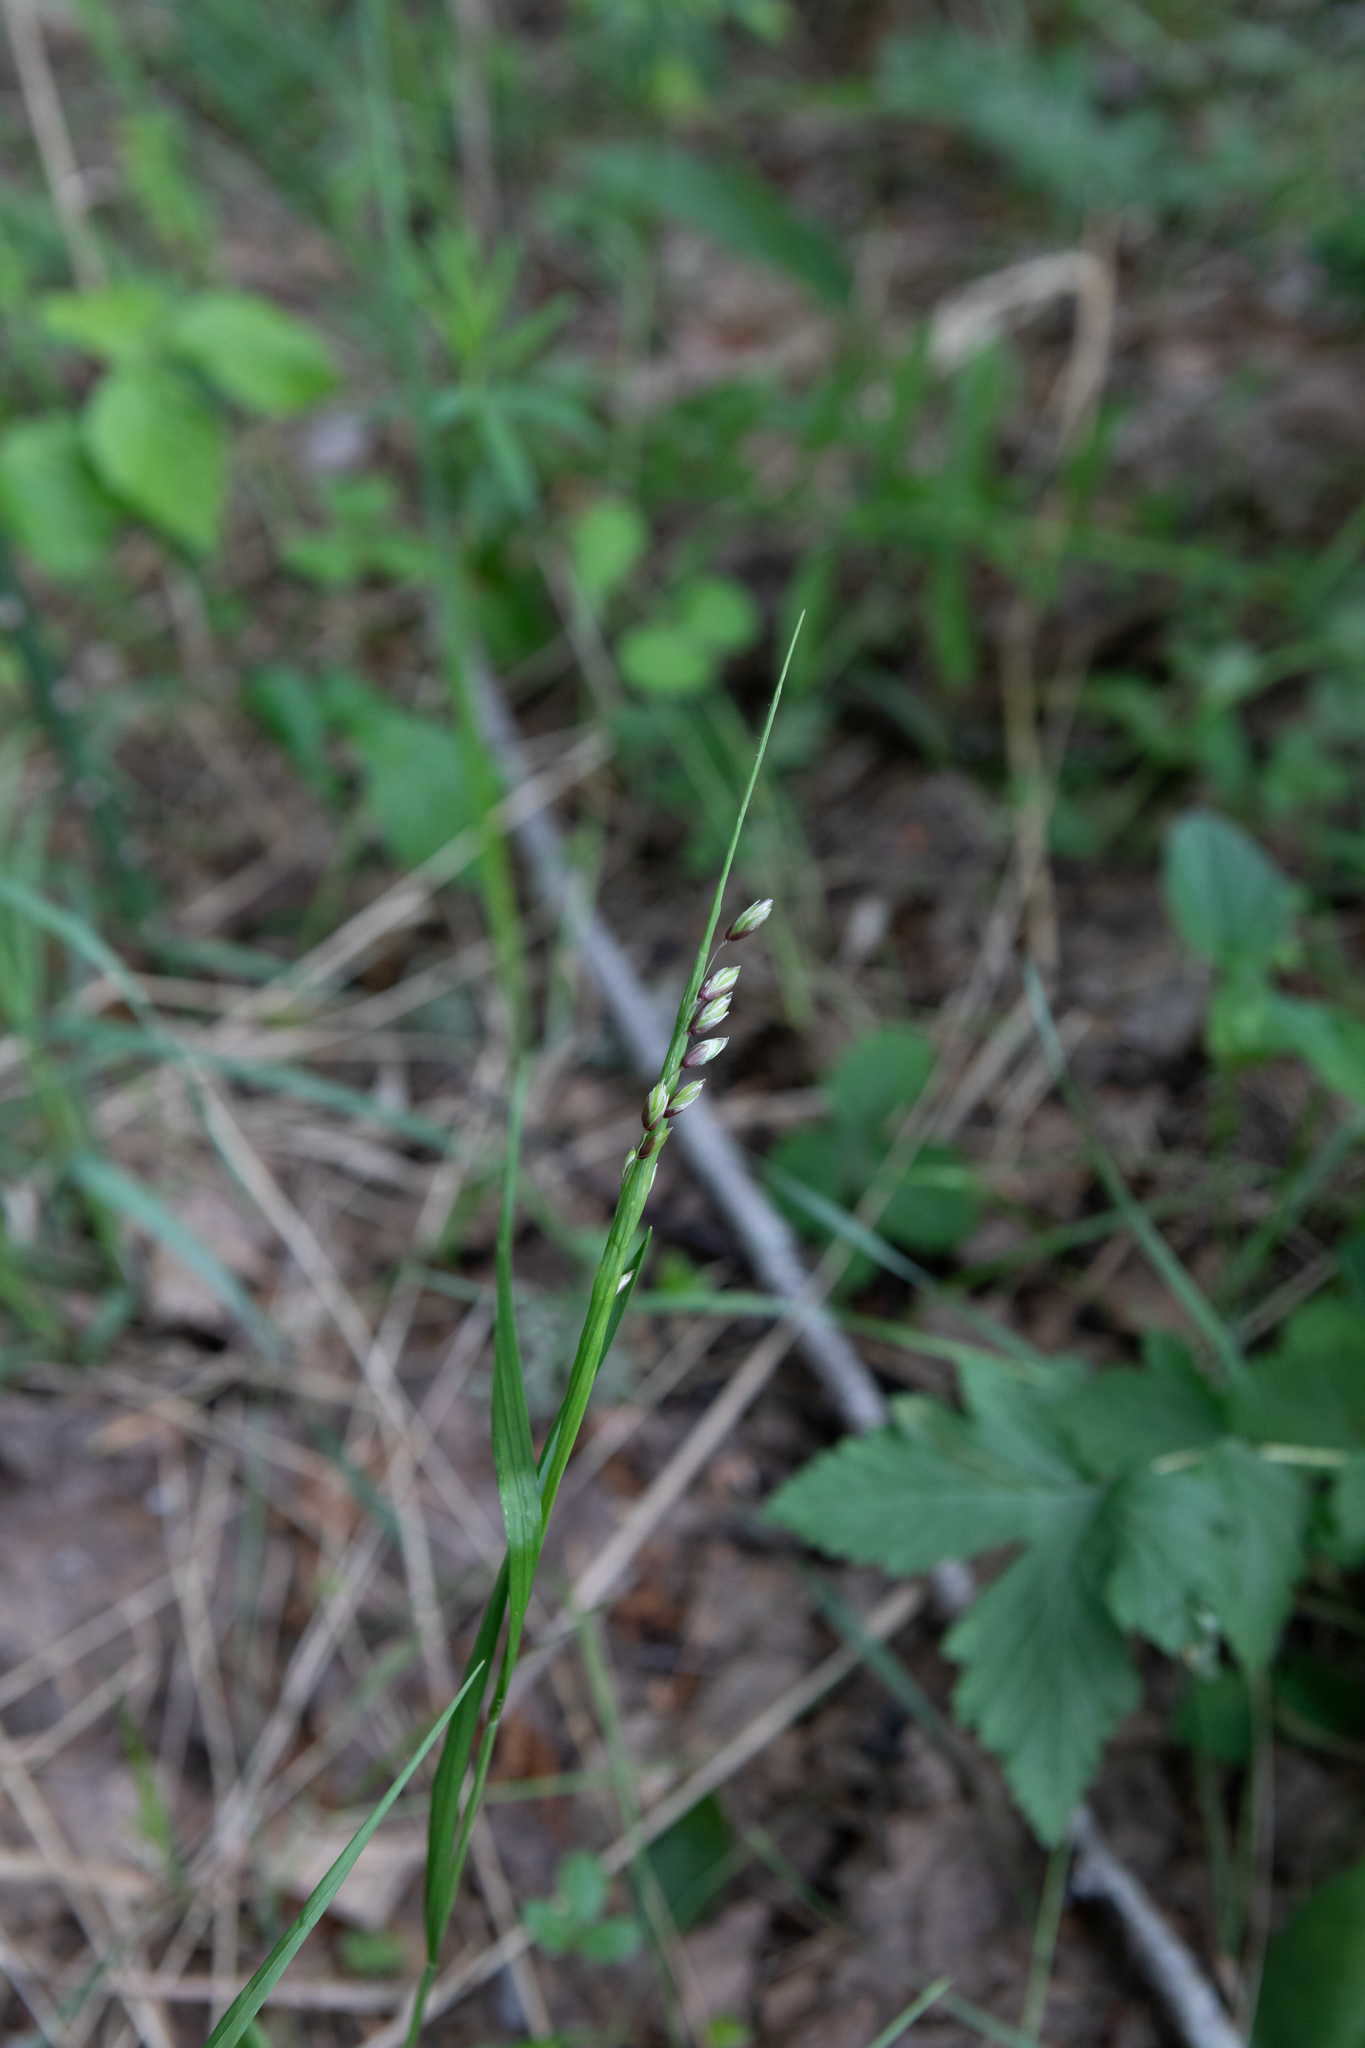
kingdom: Plantae
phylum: Tracheophyta
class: Liliopsida
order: Poales
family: Poaceae
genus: Melica
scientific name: Melica nutans
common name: Mountain melick
